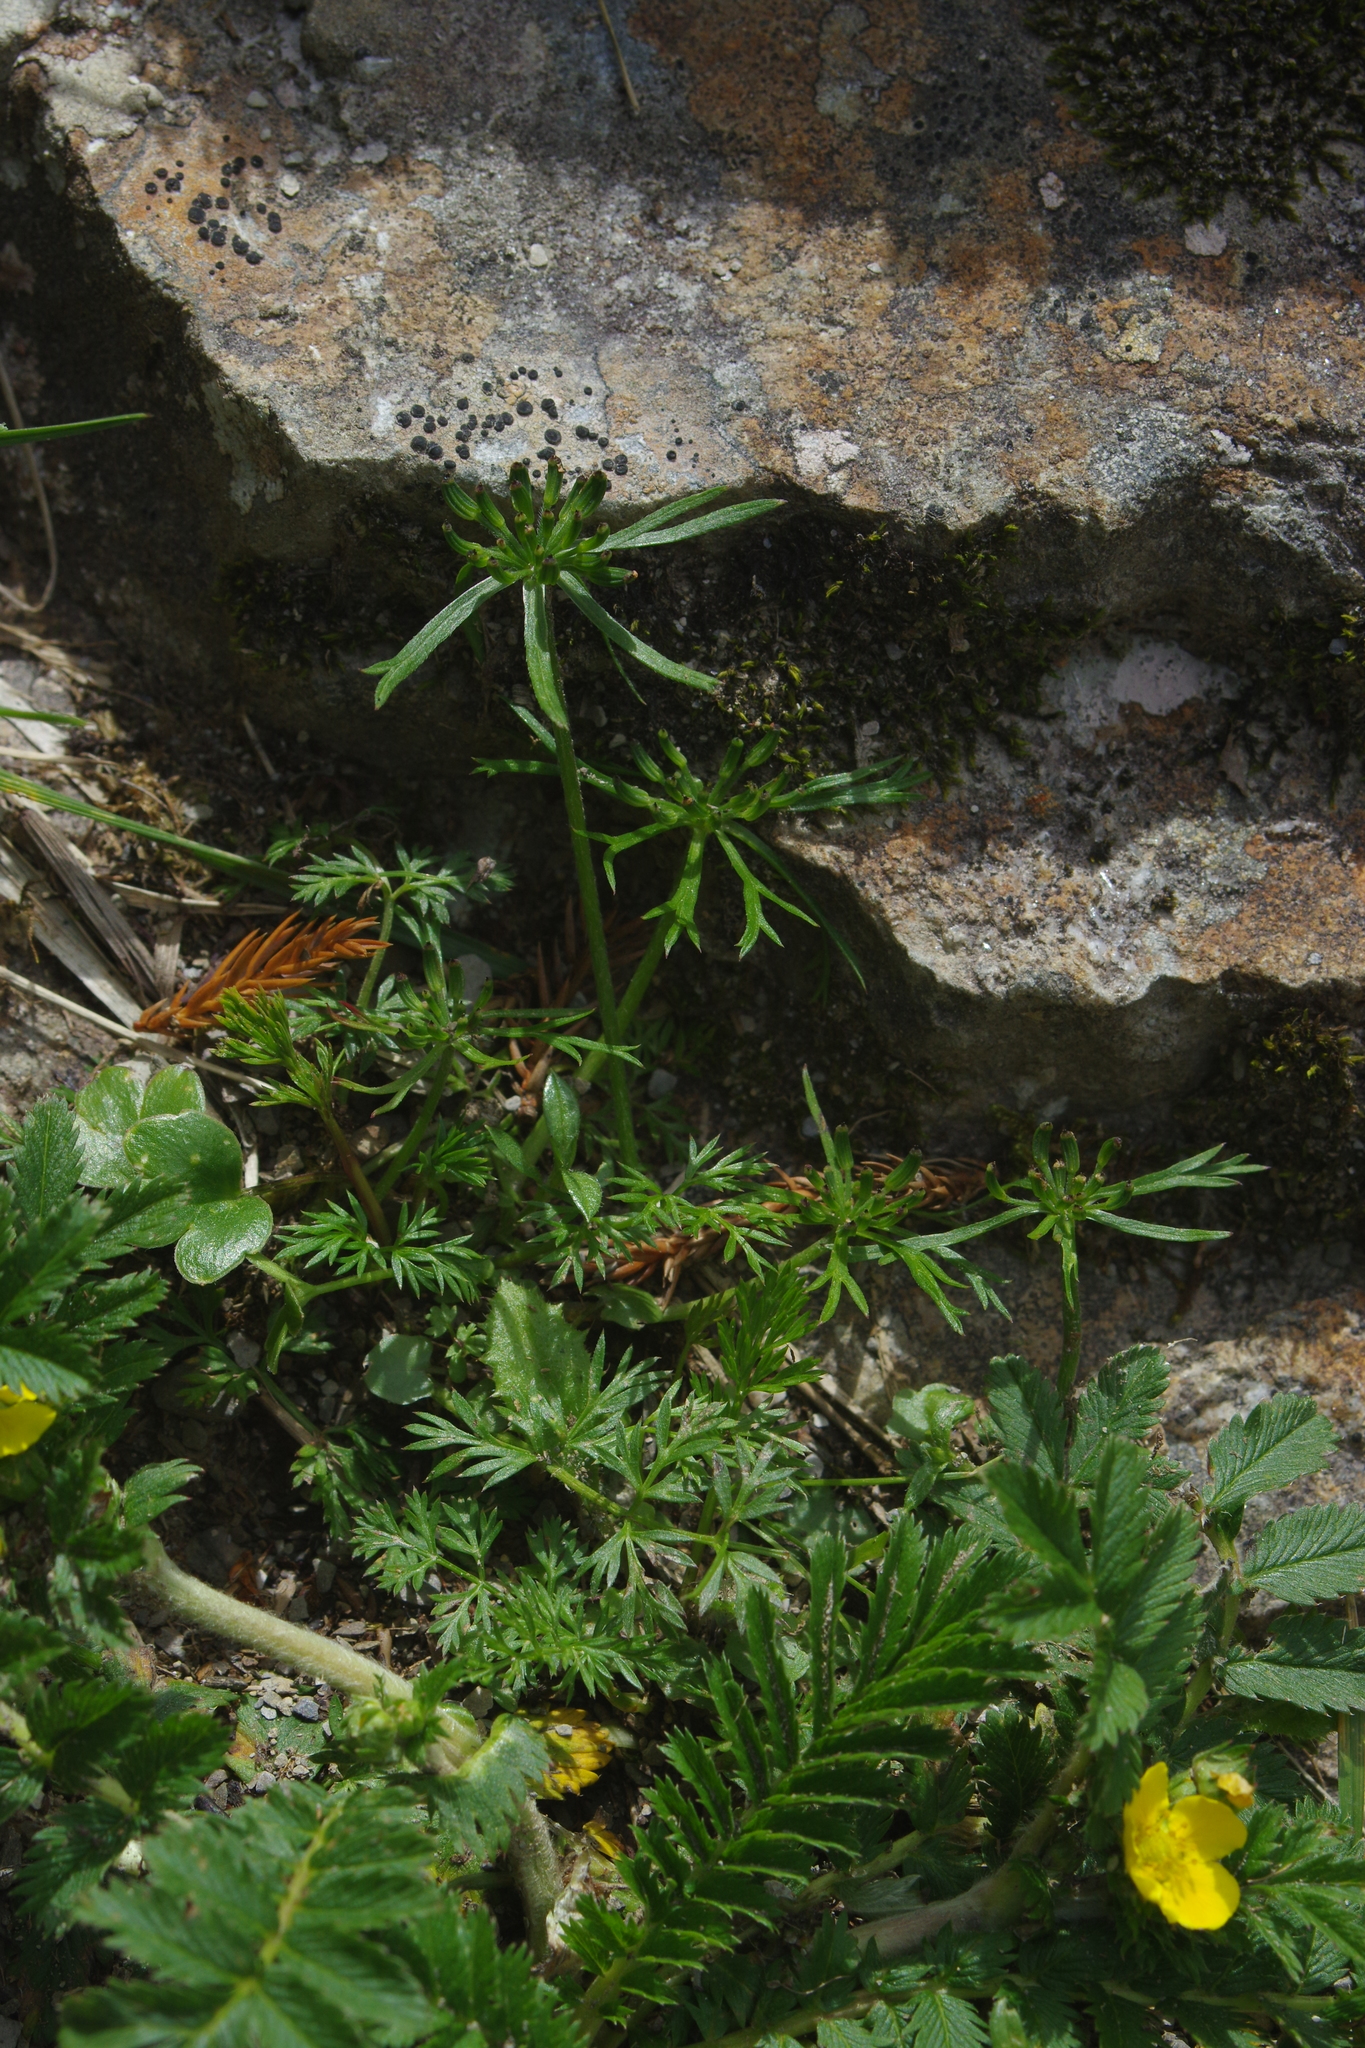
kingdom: Plantae
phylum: Tracheophyta
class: Magnoliopsida
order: Apiales
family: Apiaceae
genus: Chaerophyllum
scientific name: Chaerophyllum involucratum
